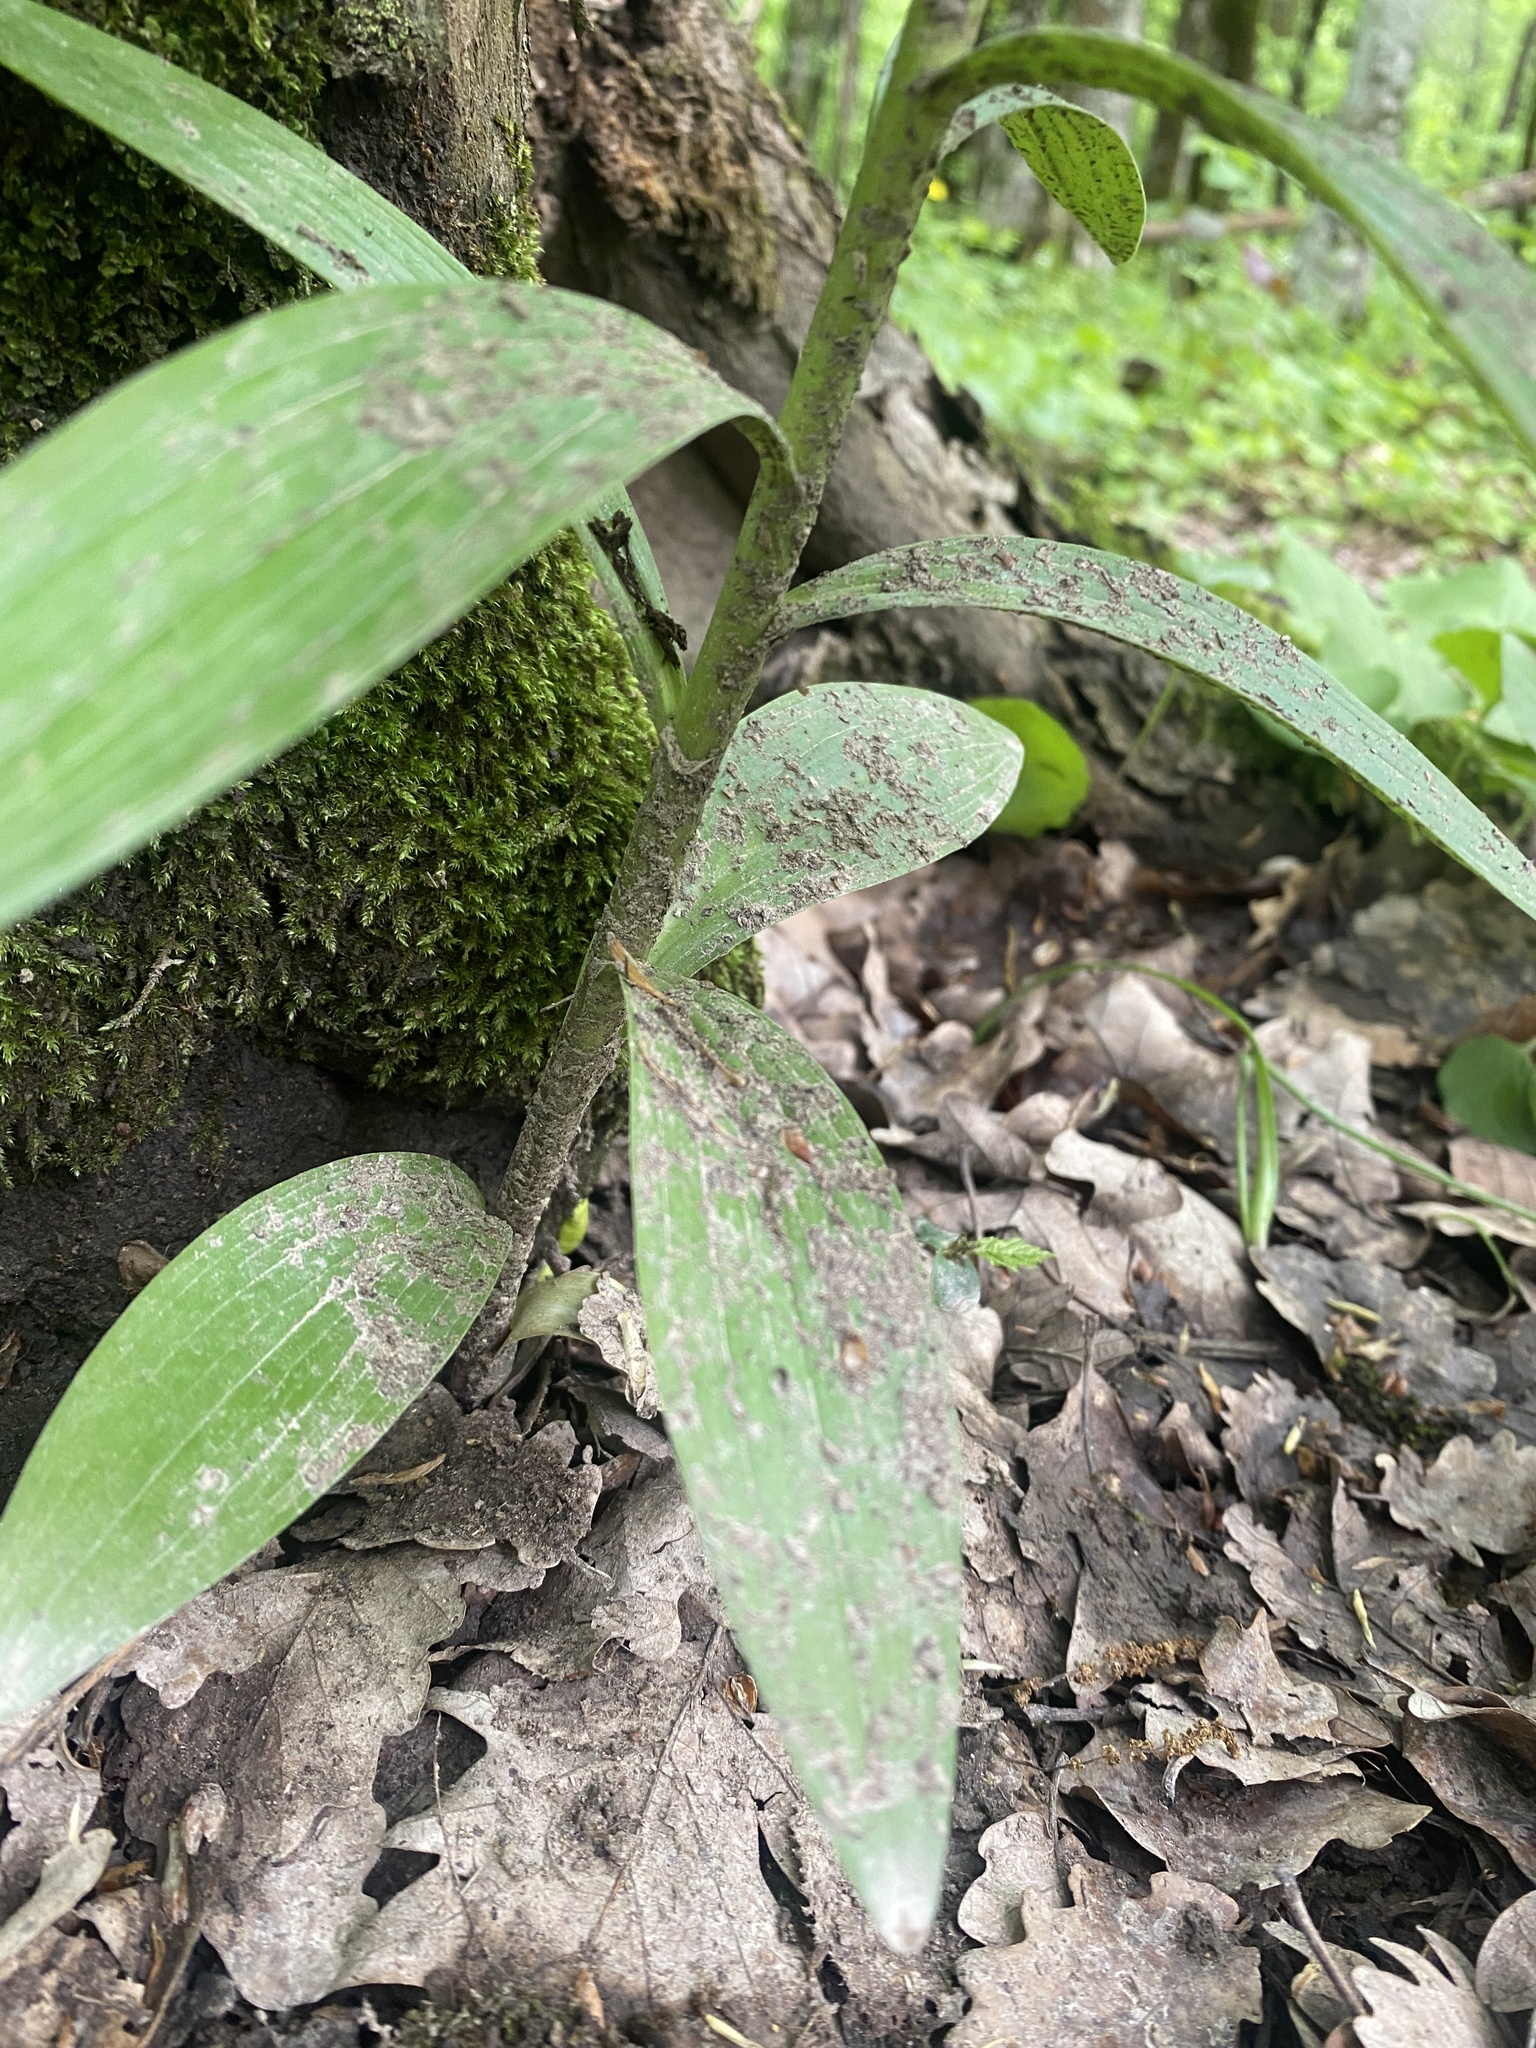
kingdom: Plantae
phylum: Tracheophyta
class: Liliopsida
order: Liliales
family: Liliaceae
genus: Lilium
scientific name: Lilium monadelphum
